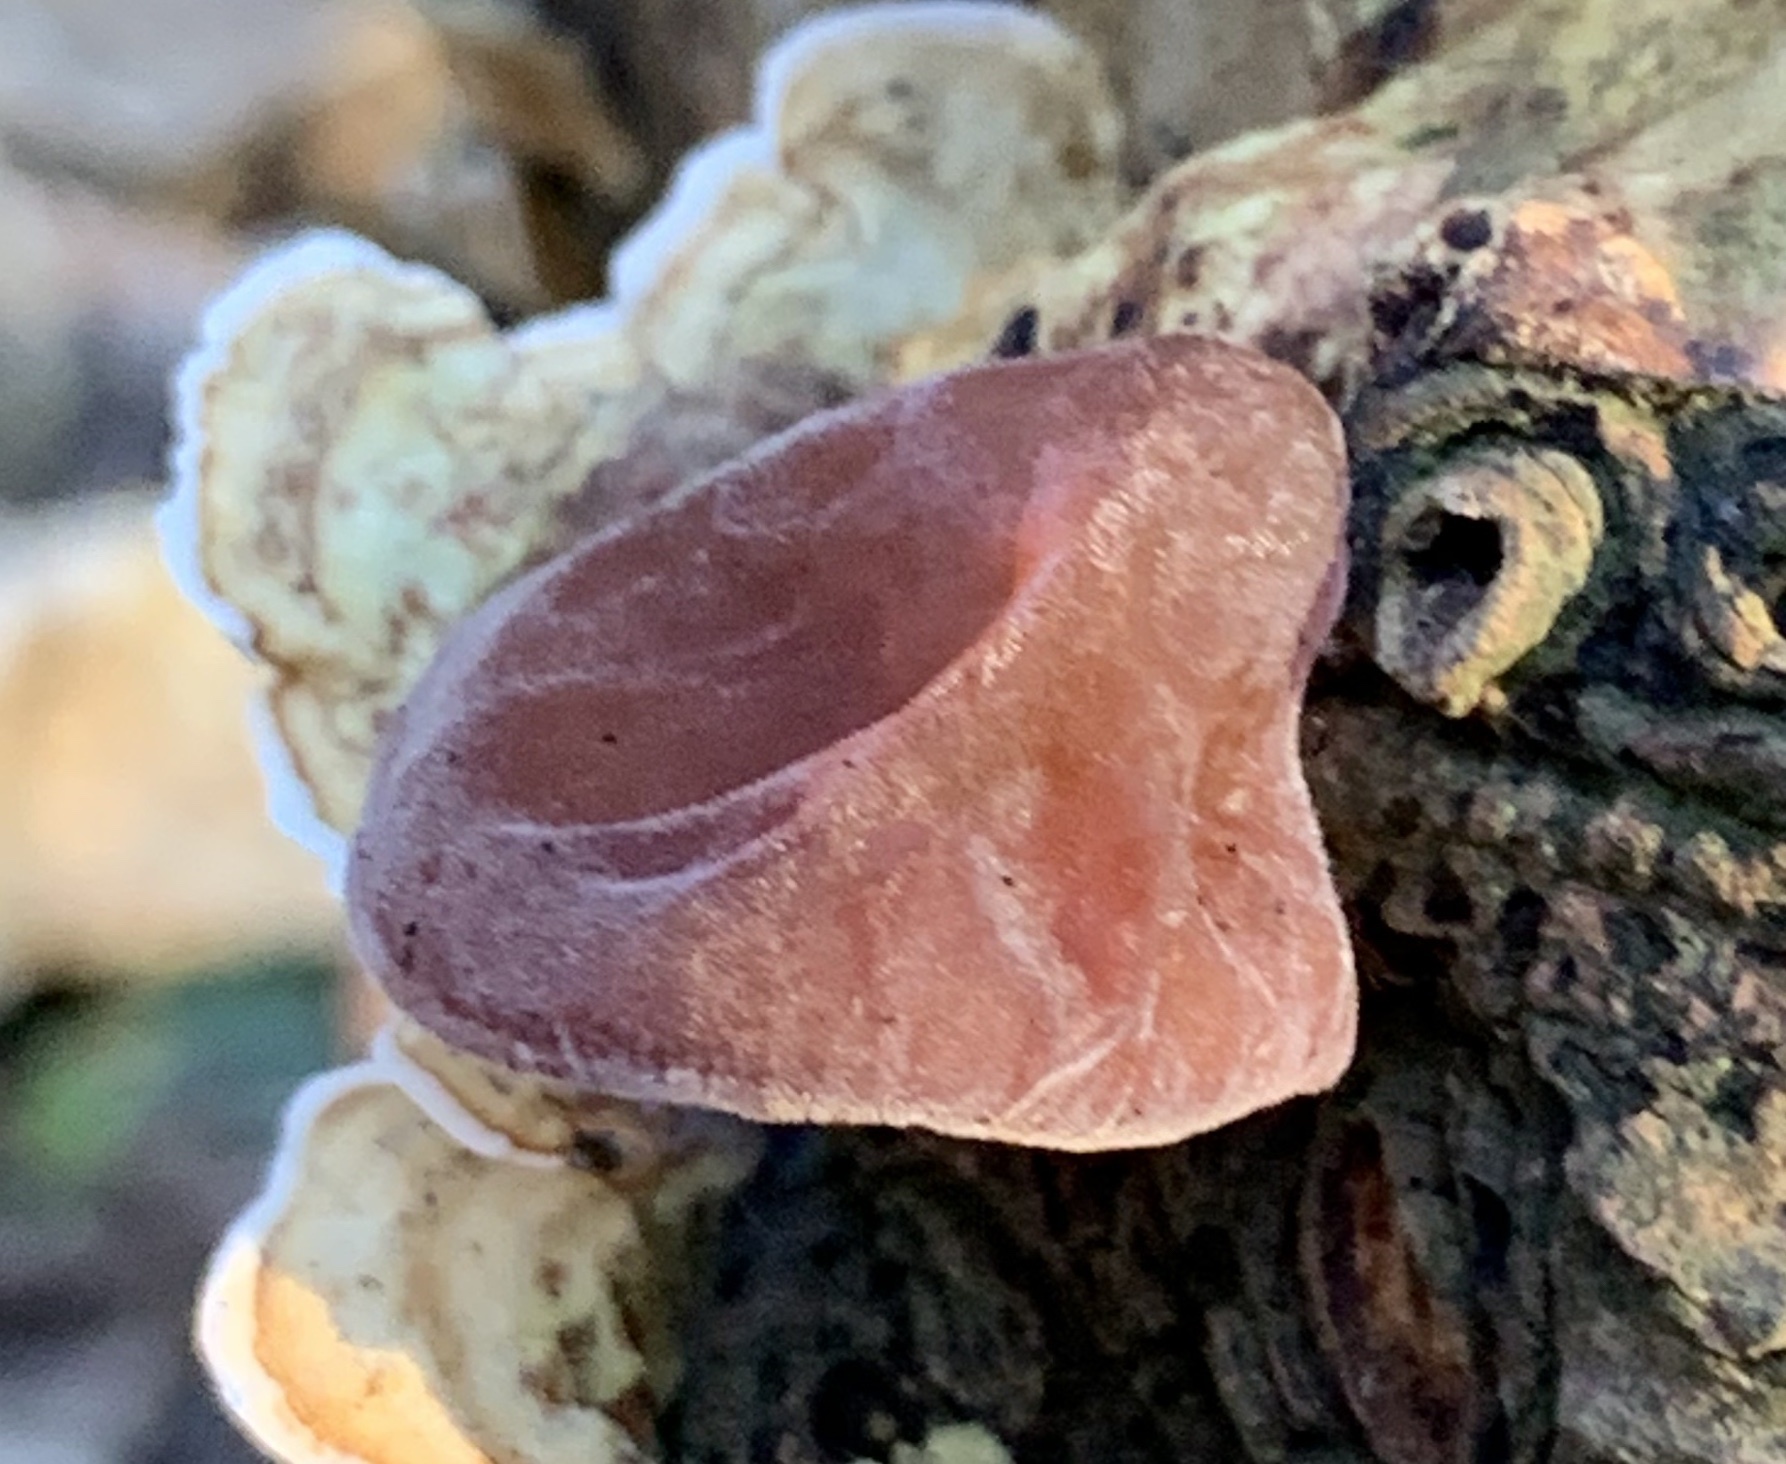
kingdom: Fungi
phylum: Basidiomycota
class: Agaricomycetes
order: Auriculariales
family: Auriculariaceae
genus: Auricularia
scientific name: Auricularia auricula-judae
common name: Jelly ear
